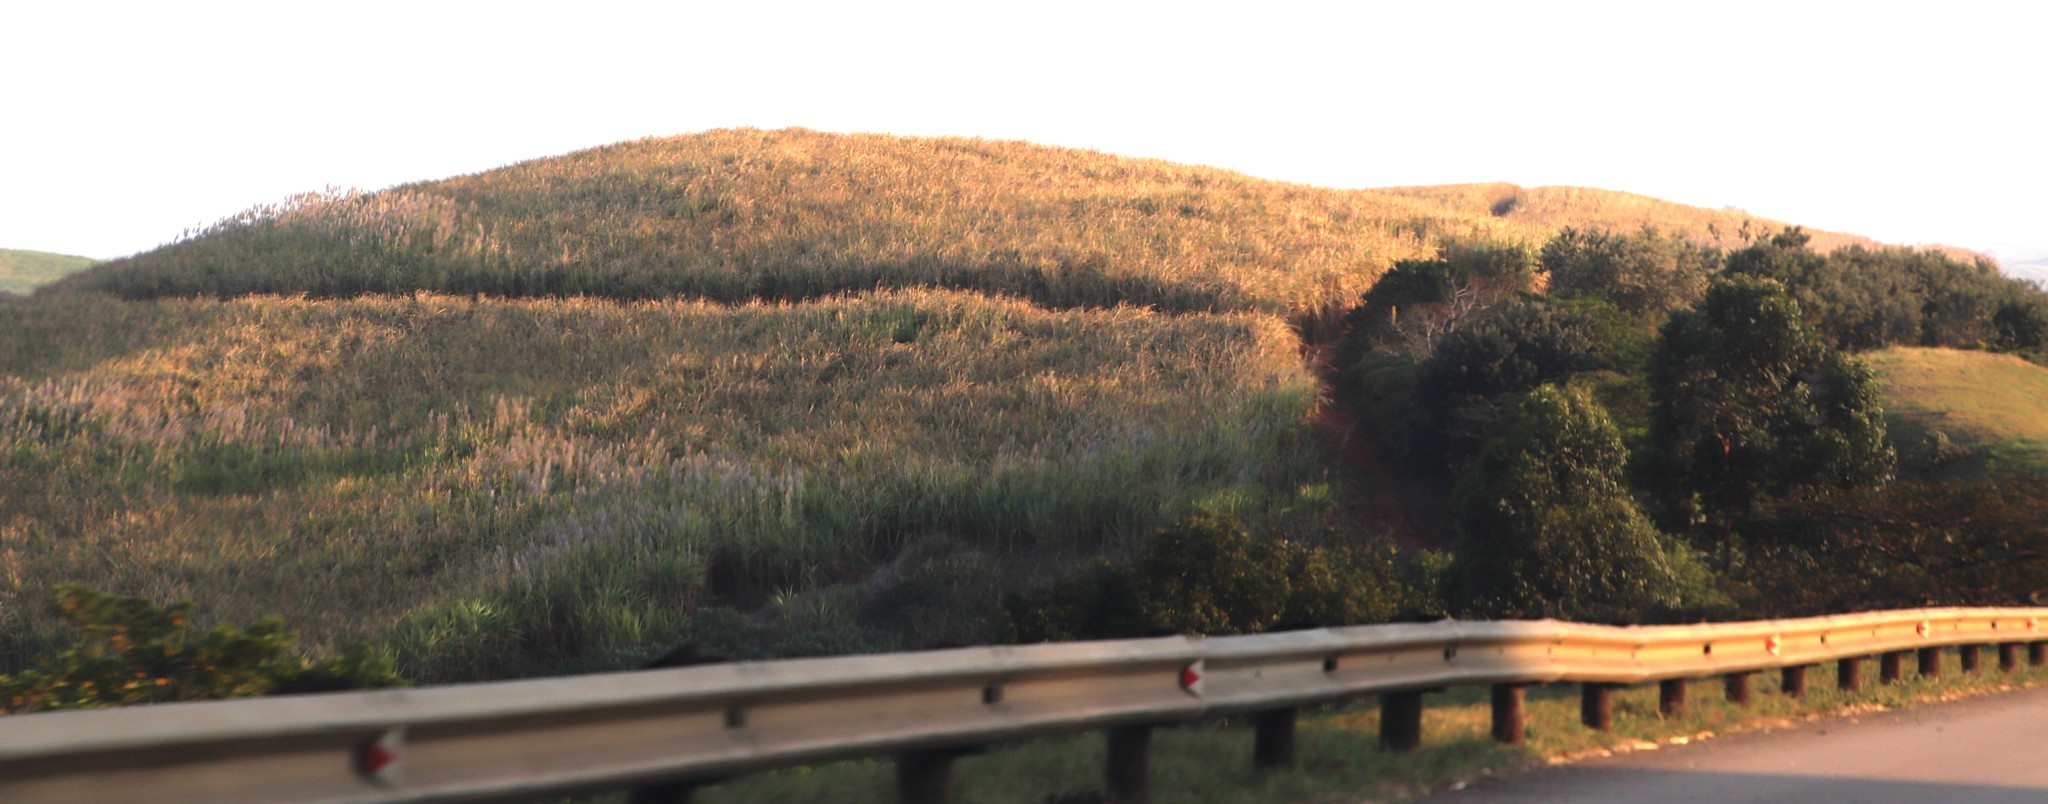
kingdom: Plantae
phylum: Tracheophyta
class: Liliopsida
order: Poales
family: Poaceae
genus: Saccharum
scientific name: Saccharum officinarum
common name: Sugarcane
